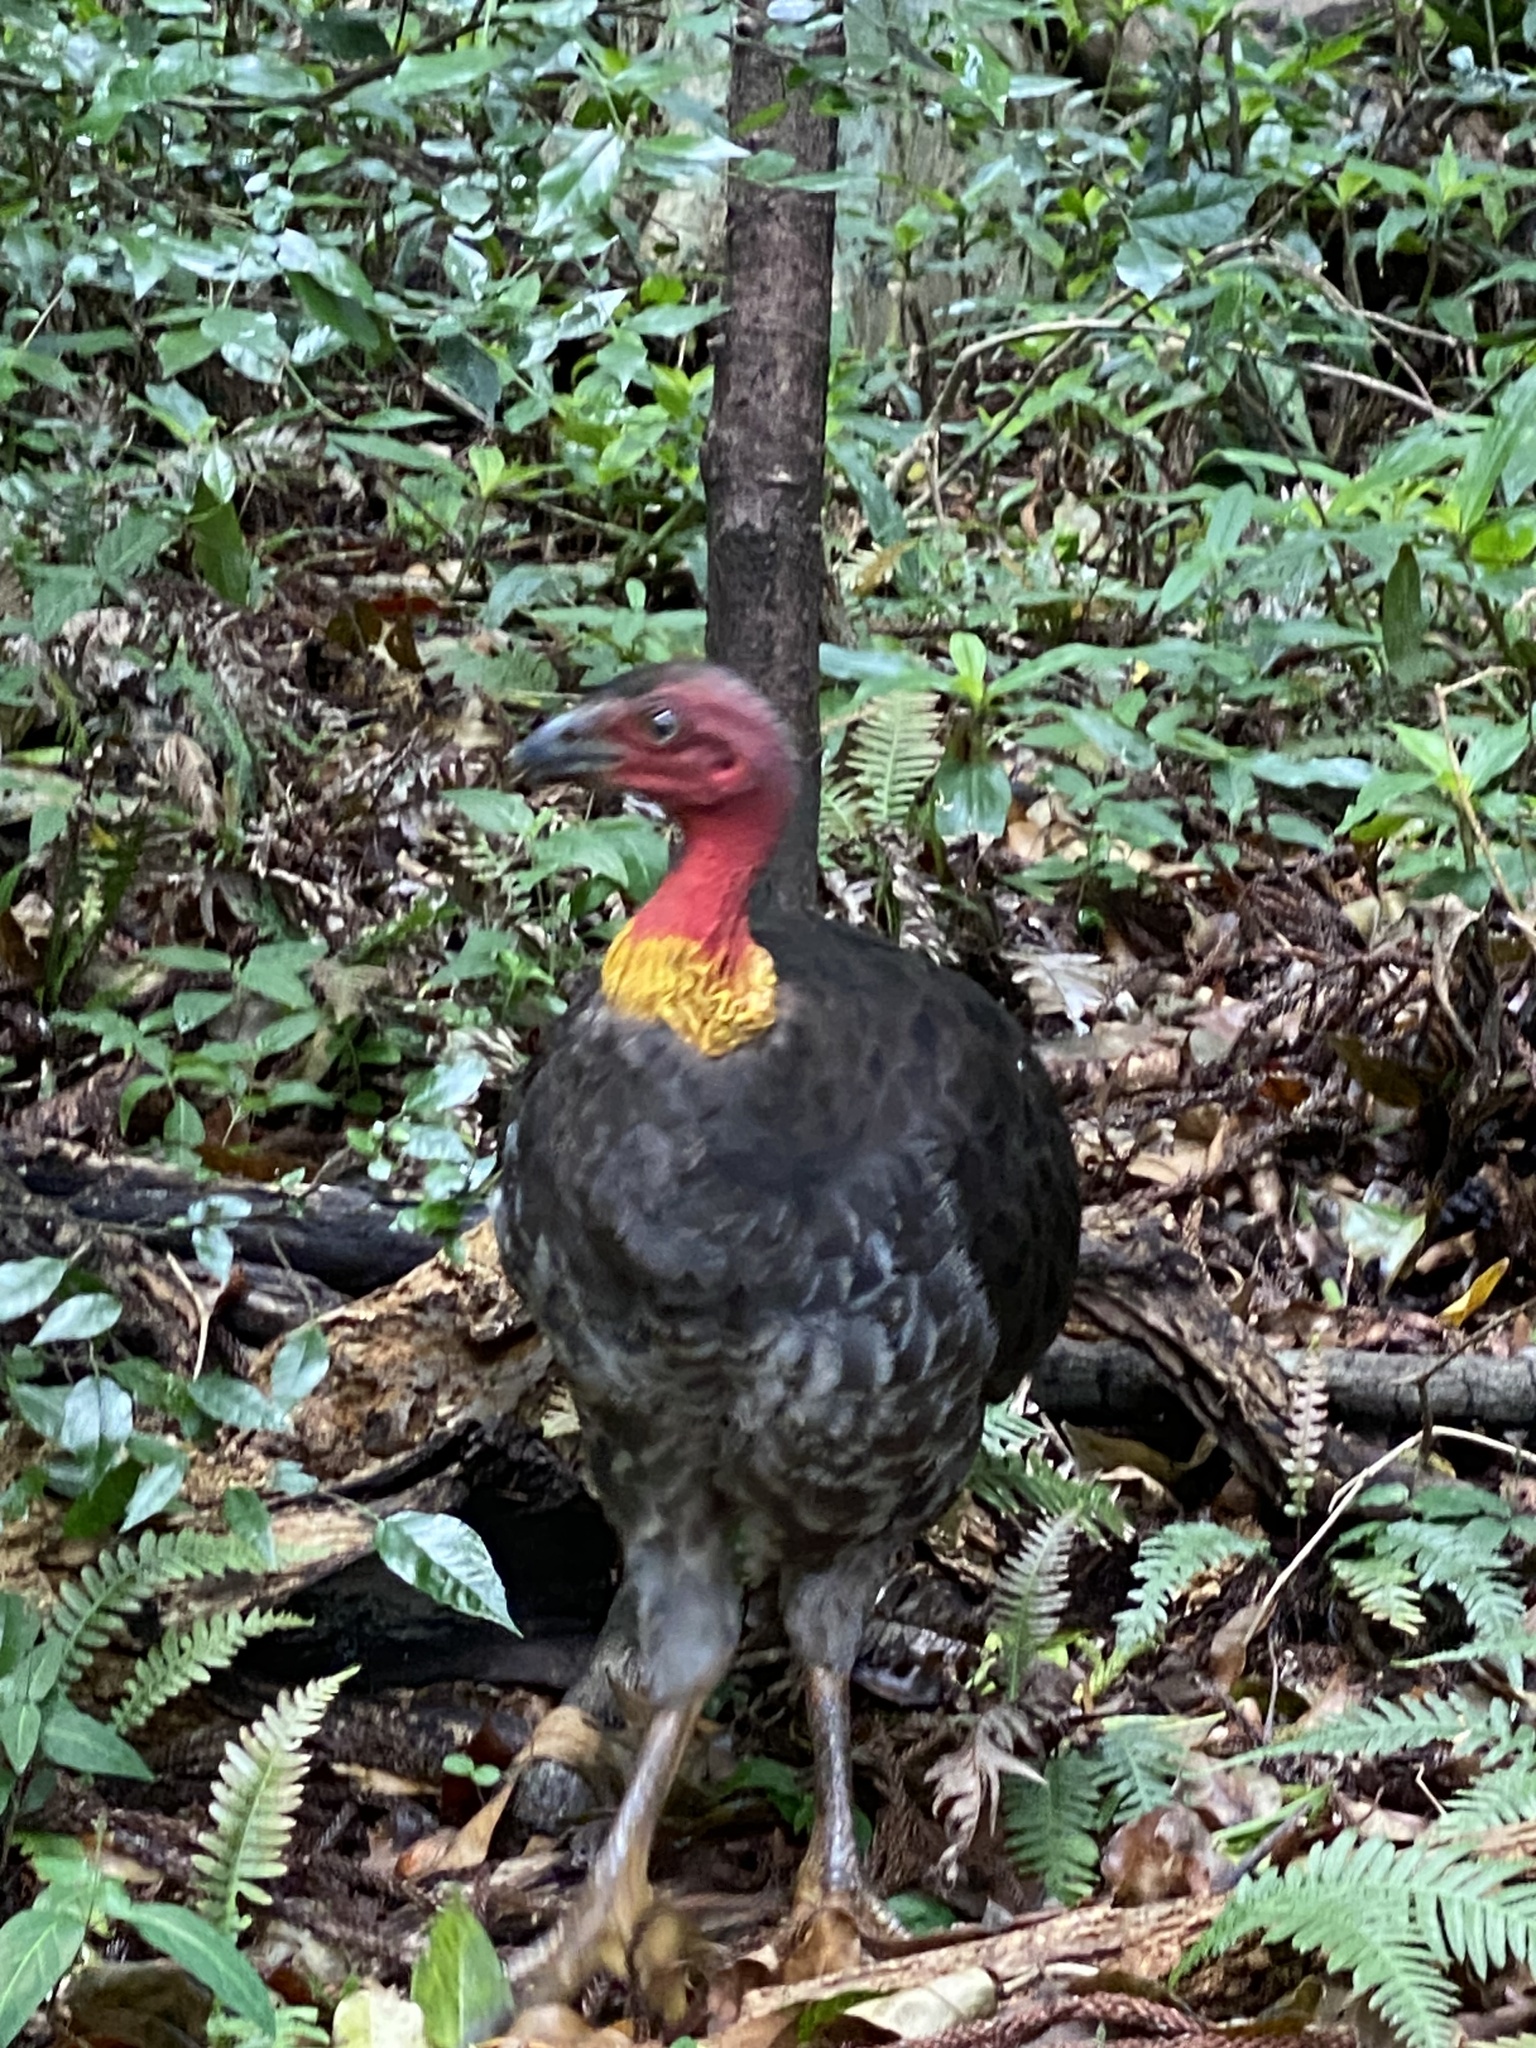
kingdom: Animalia
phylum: Chordata
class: Aves
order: Galliformes
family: Megapodiidae
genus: Alectura
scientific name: Alectura lathami
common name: Australian brushturkey
